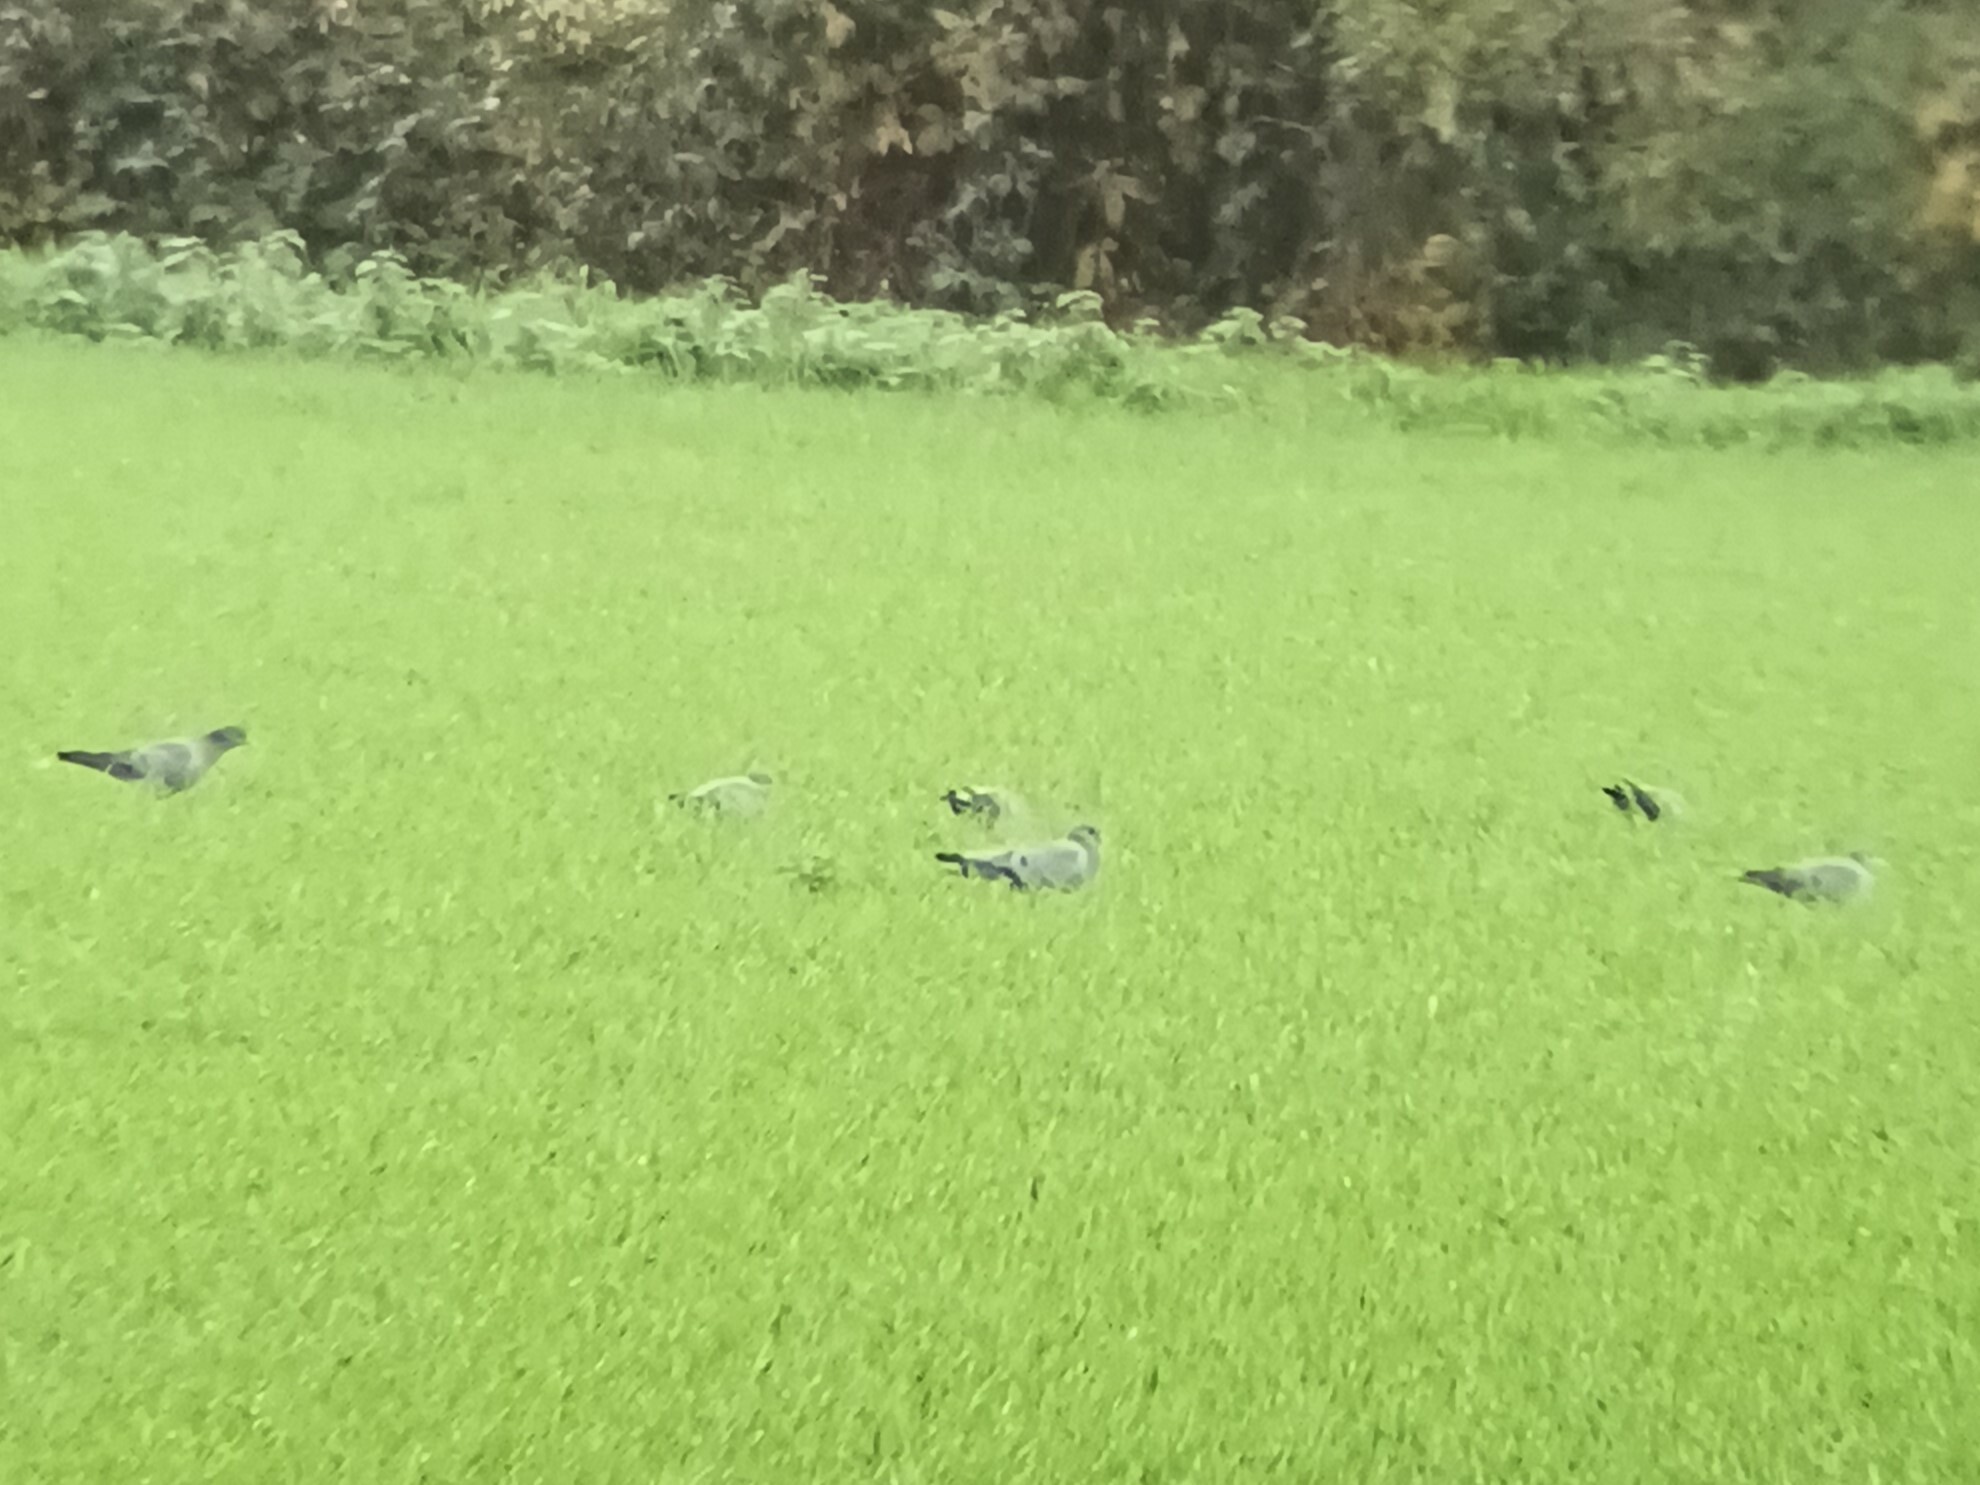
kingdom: Animalia
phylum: Chordata
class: Aves
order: Columbiformes
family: Columbidae
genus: Columba
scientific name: Columba oenas
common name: Stock dove
